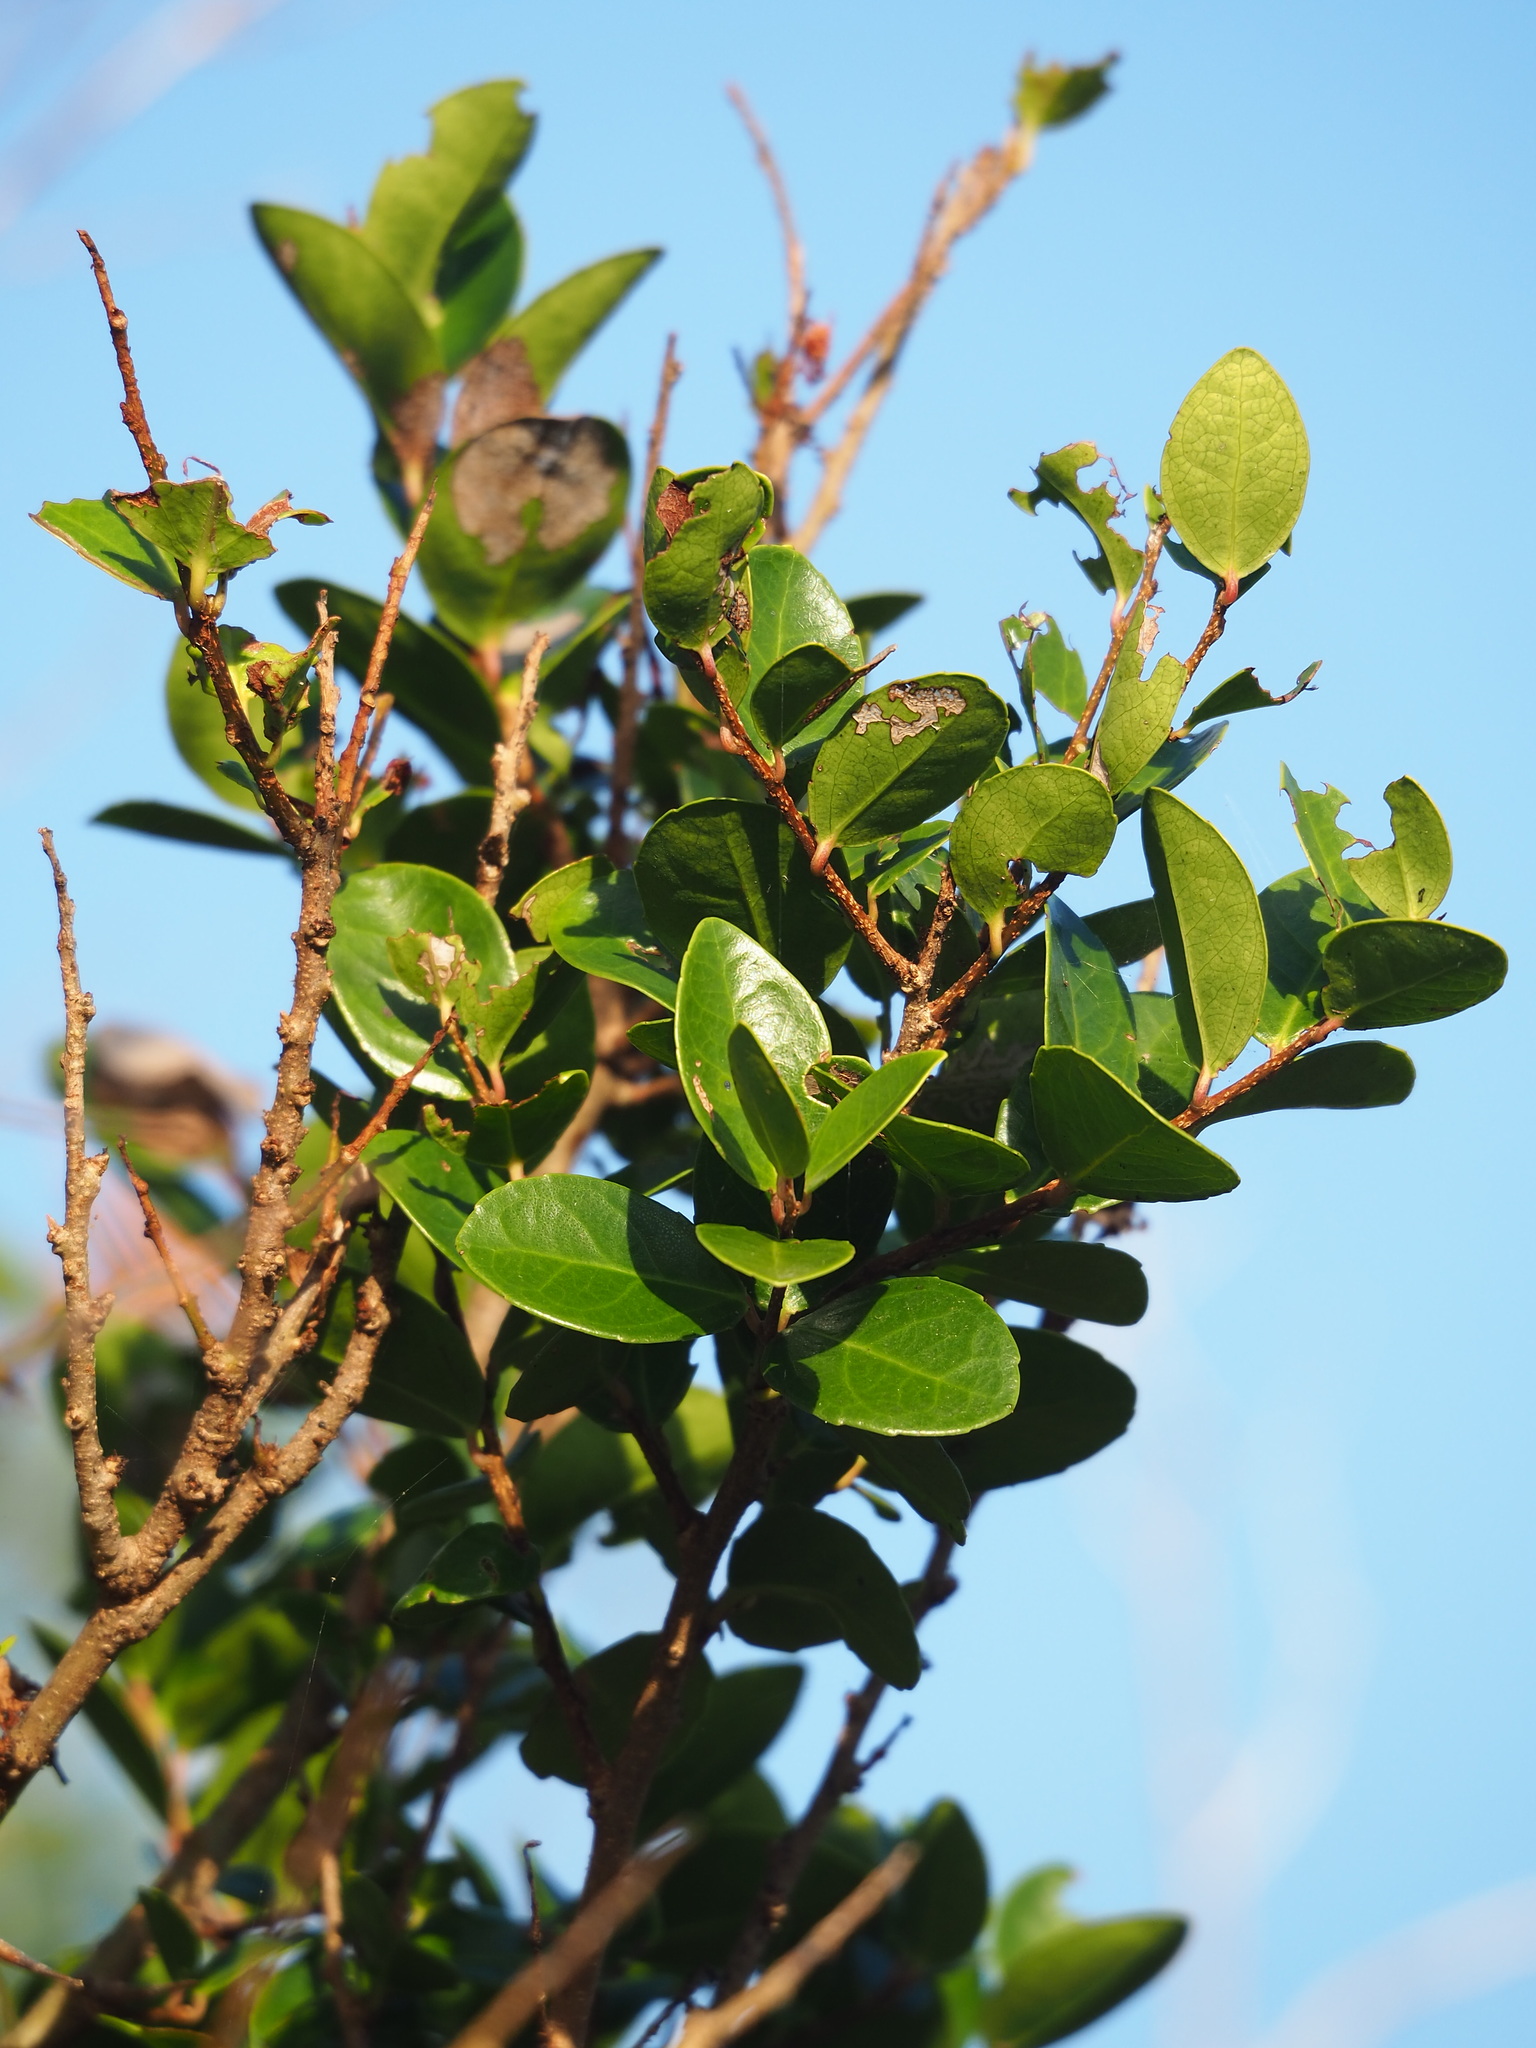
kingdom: Plantae
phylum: Tracheophyta
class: Magnoliopsida
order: Malpighiales
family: Salicaceae
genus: Scolopia
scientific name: Scolopia oldhamii
